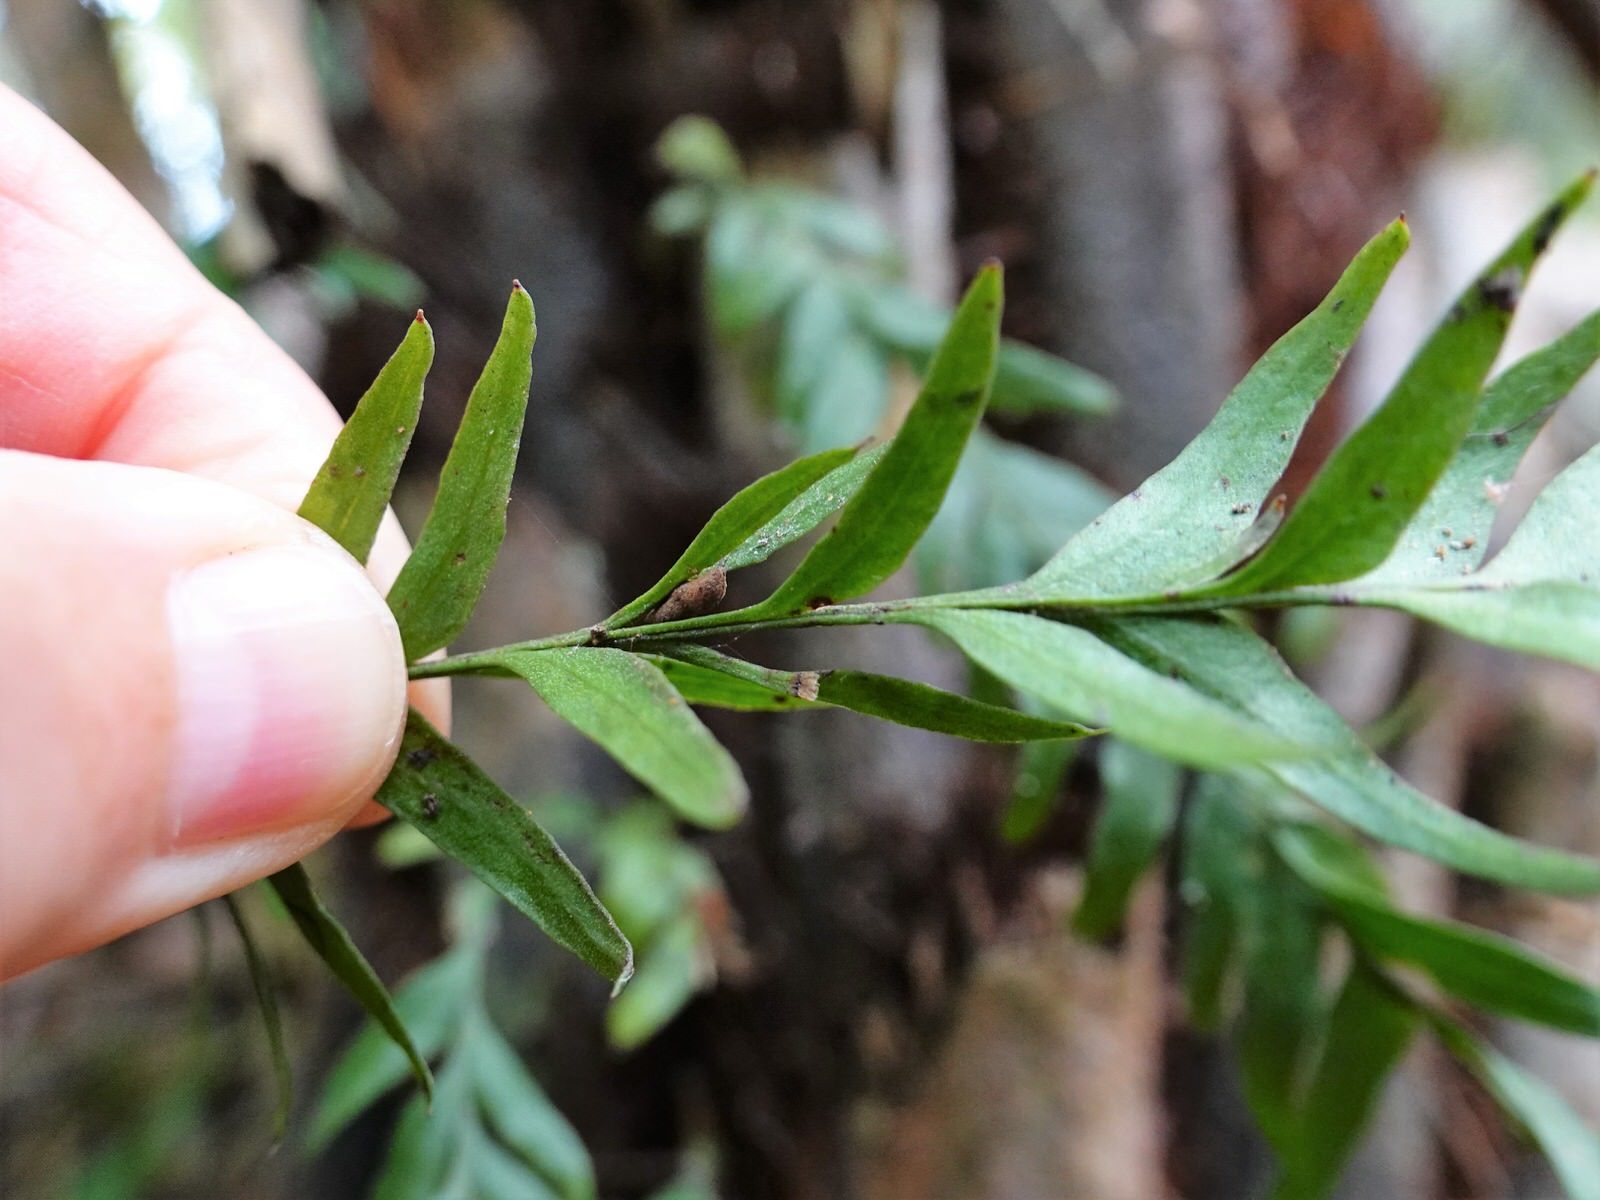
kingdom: Plantae
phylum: Tracheophyta
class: Polypodiopsida
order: Psilotales
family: Psilotaceae
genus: Tmesipteris
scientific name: Tmesipteris elongata
